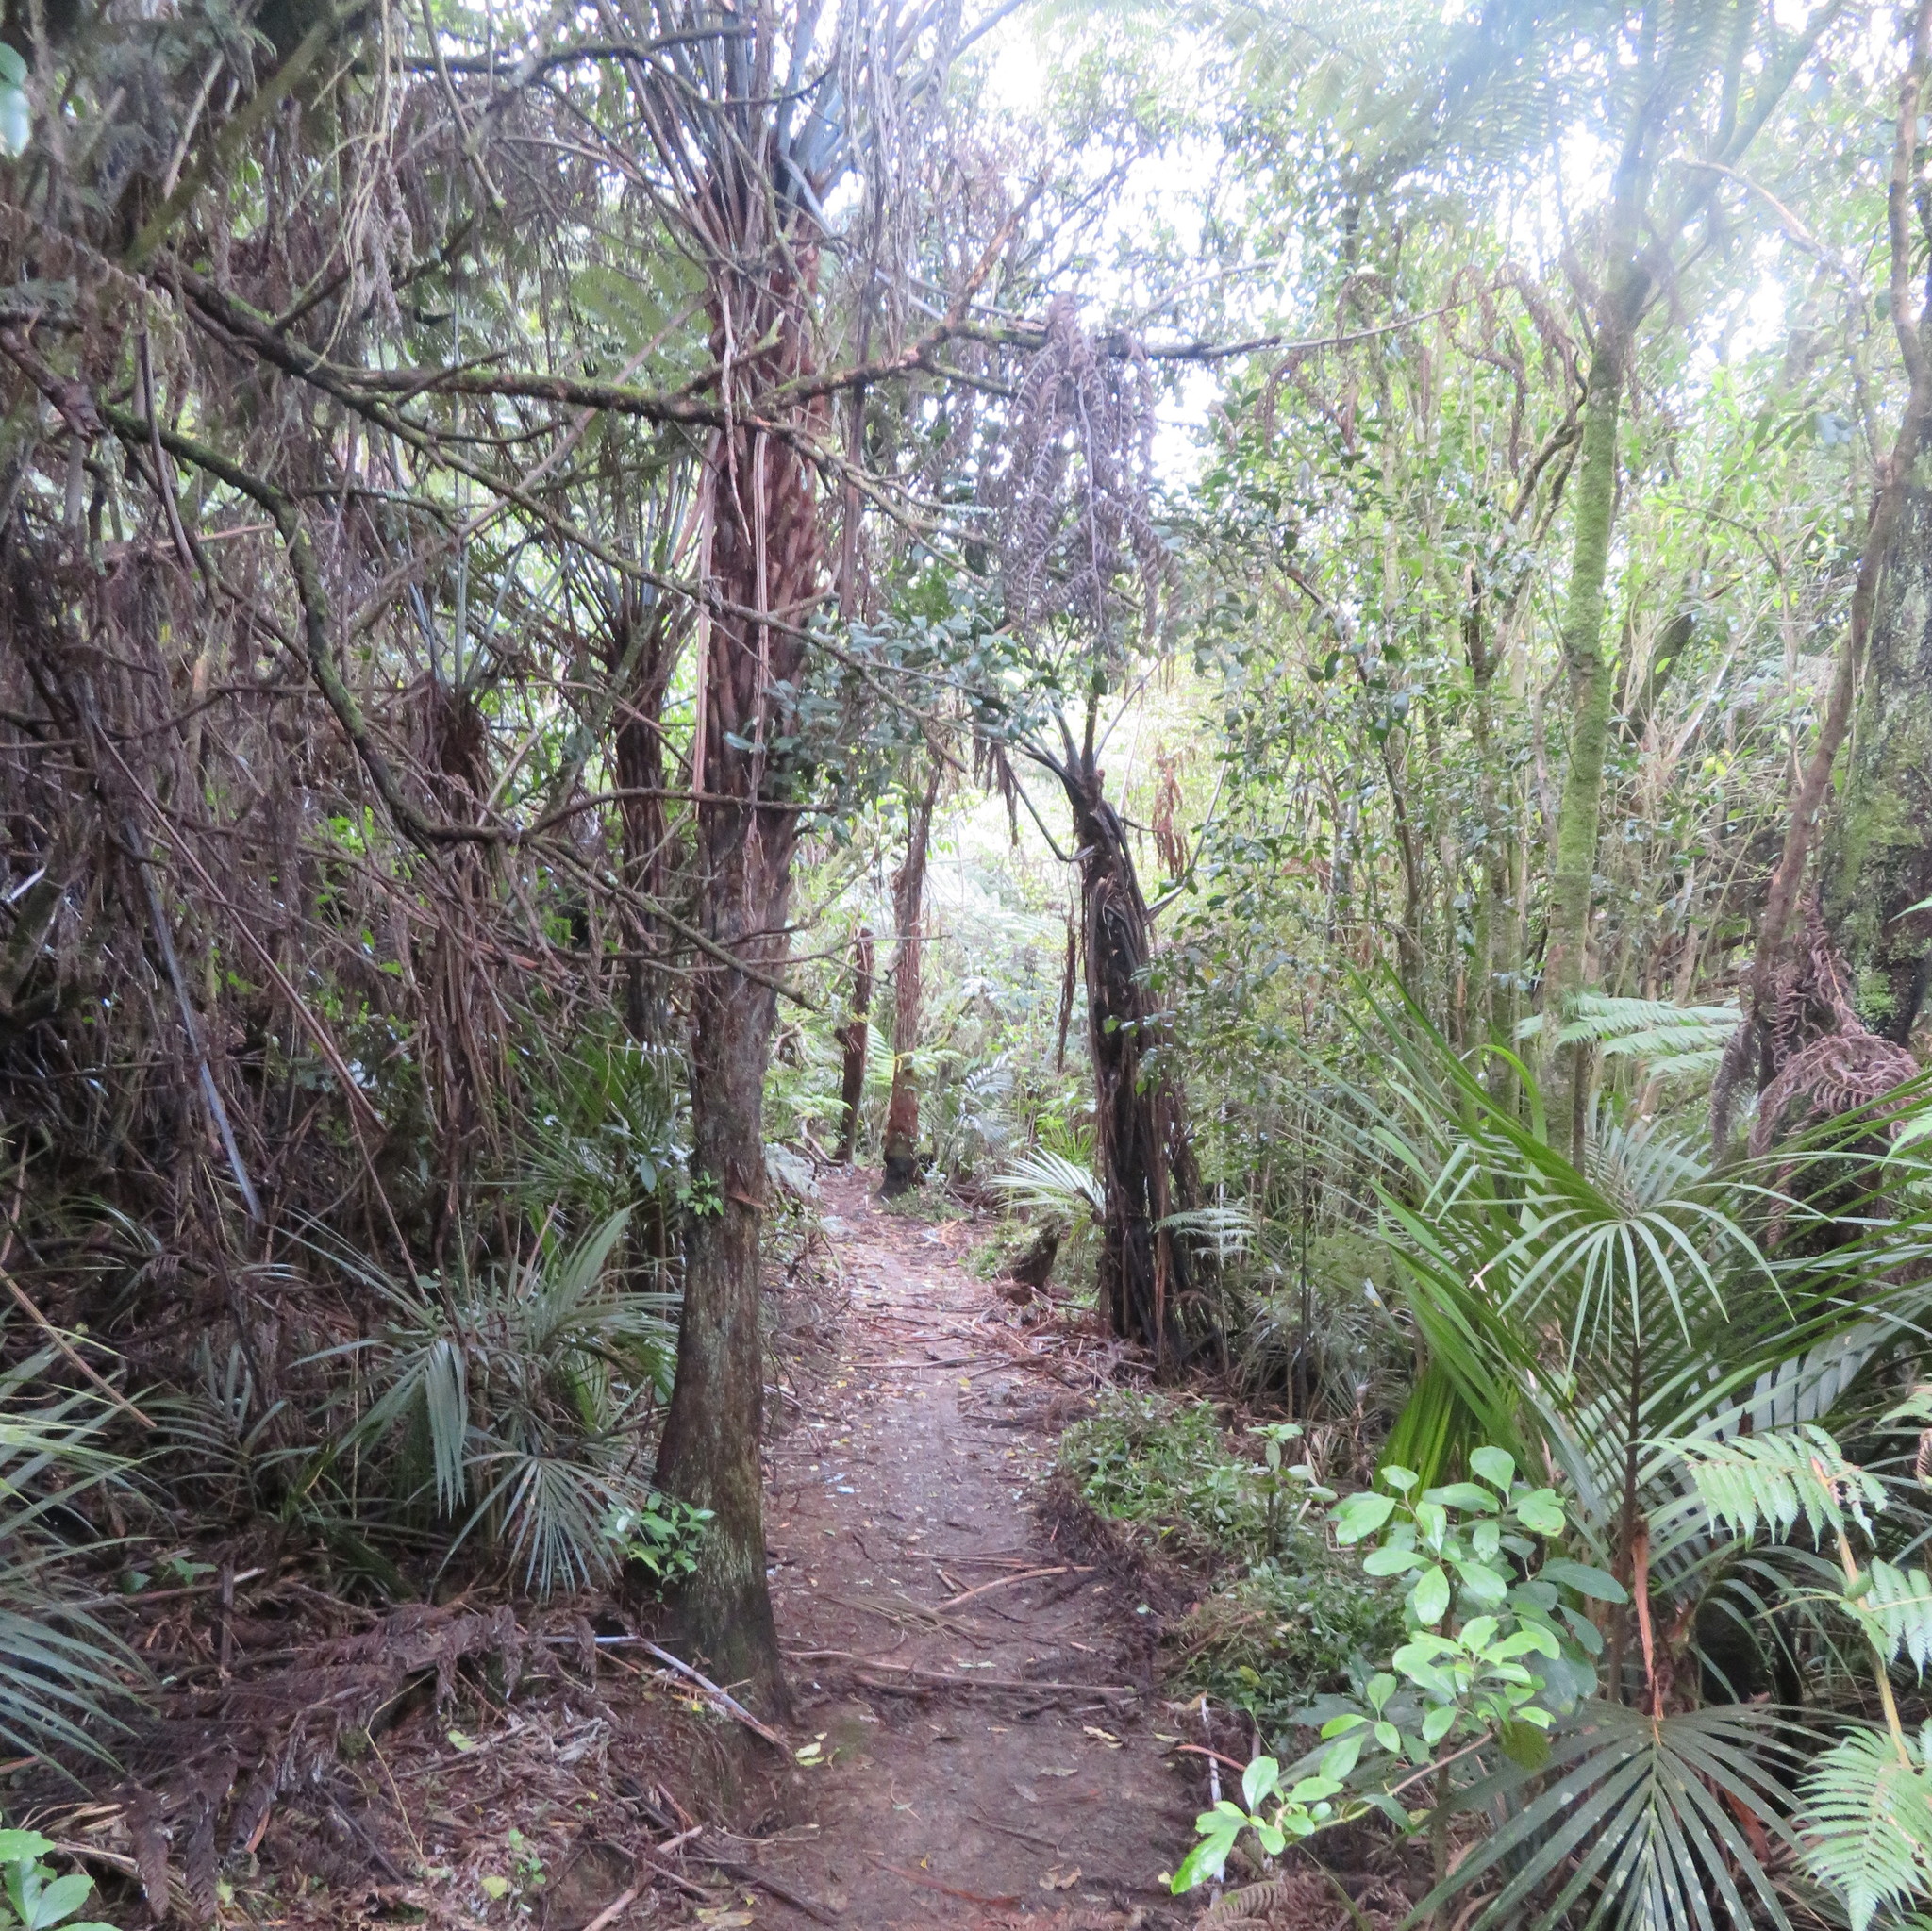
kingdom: Plantae
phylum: Tracheophyta
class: Magnoliopsida
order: Gentianales
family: Rubiaceae
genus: Coprosma
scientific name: Coprosma autumnalis
